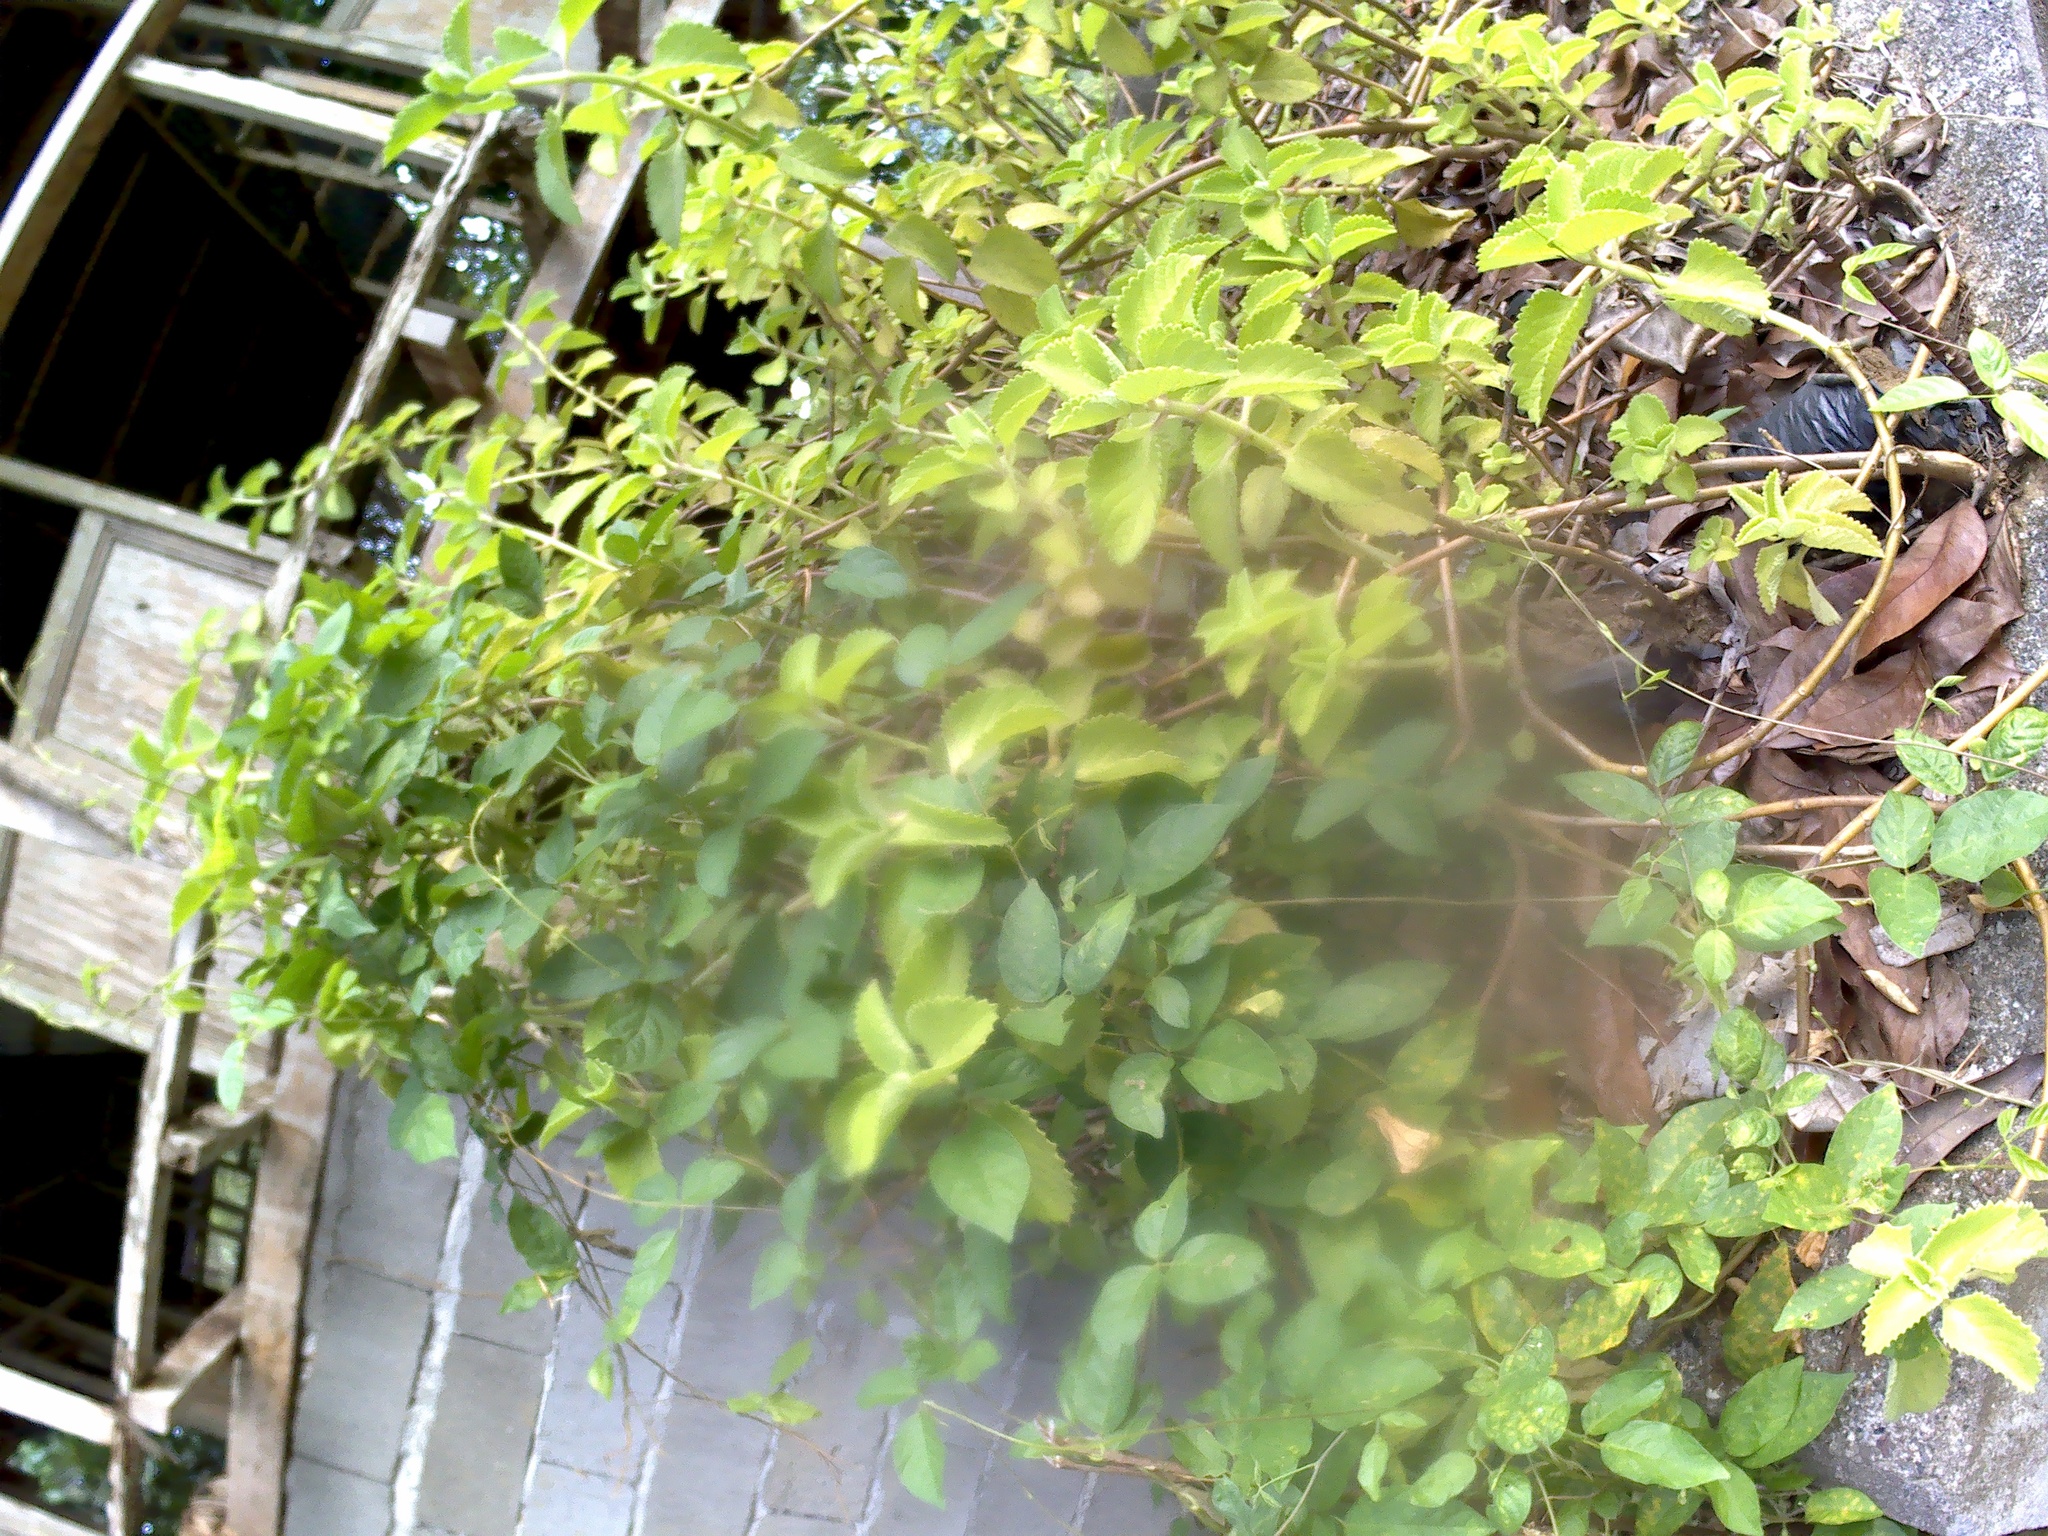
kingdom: Plantae
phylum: Tracheophyta
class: Magnoliopsida
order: Lamiales
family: Lamiaceae
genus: Coleus
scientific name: Coleus amboinicus
